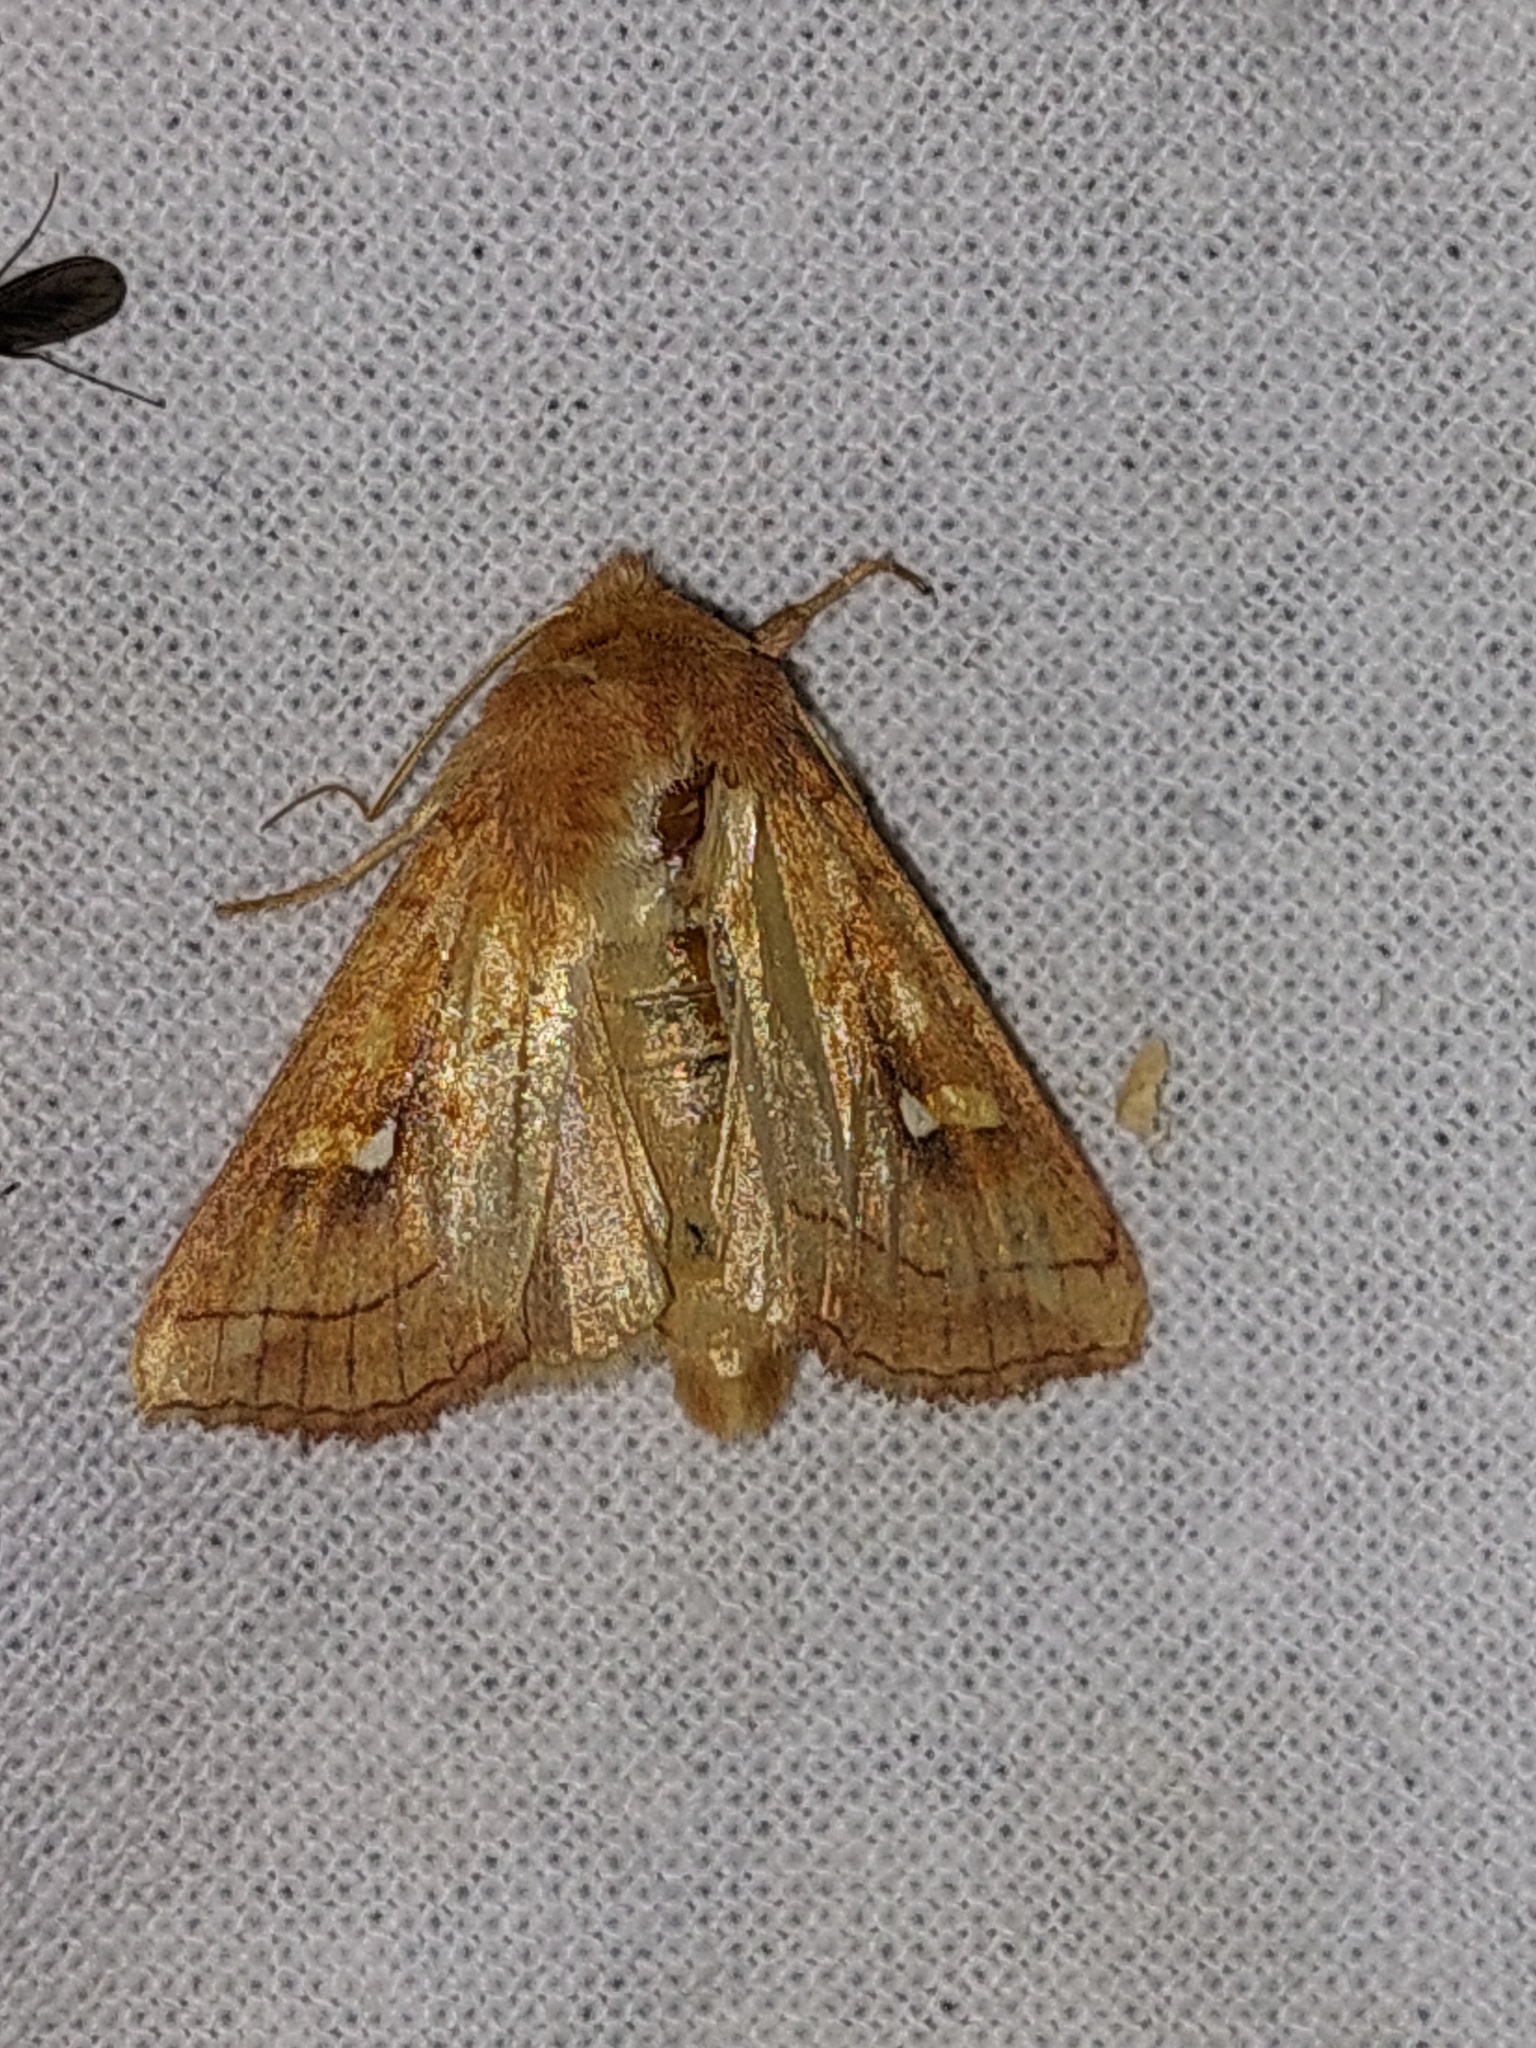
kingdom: Animalia
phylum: Arthropoda
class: Insecta
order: Lepidoptera
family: Noctuidae
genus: Mythimna
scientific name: Mythimna conigera
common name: Brown-line bright-eye
